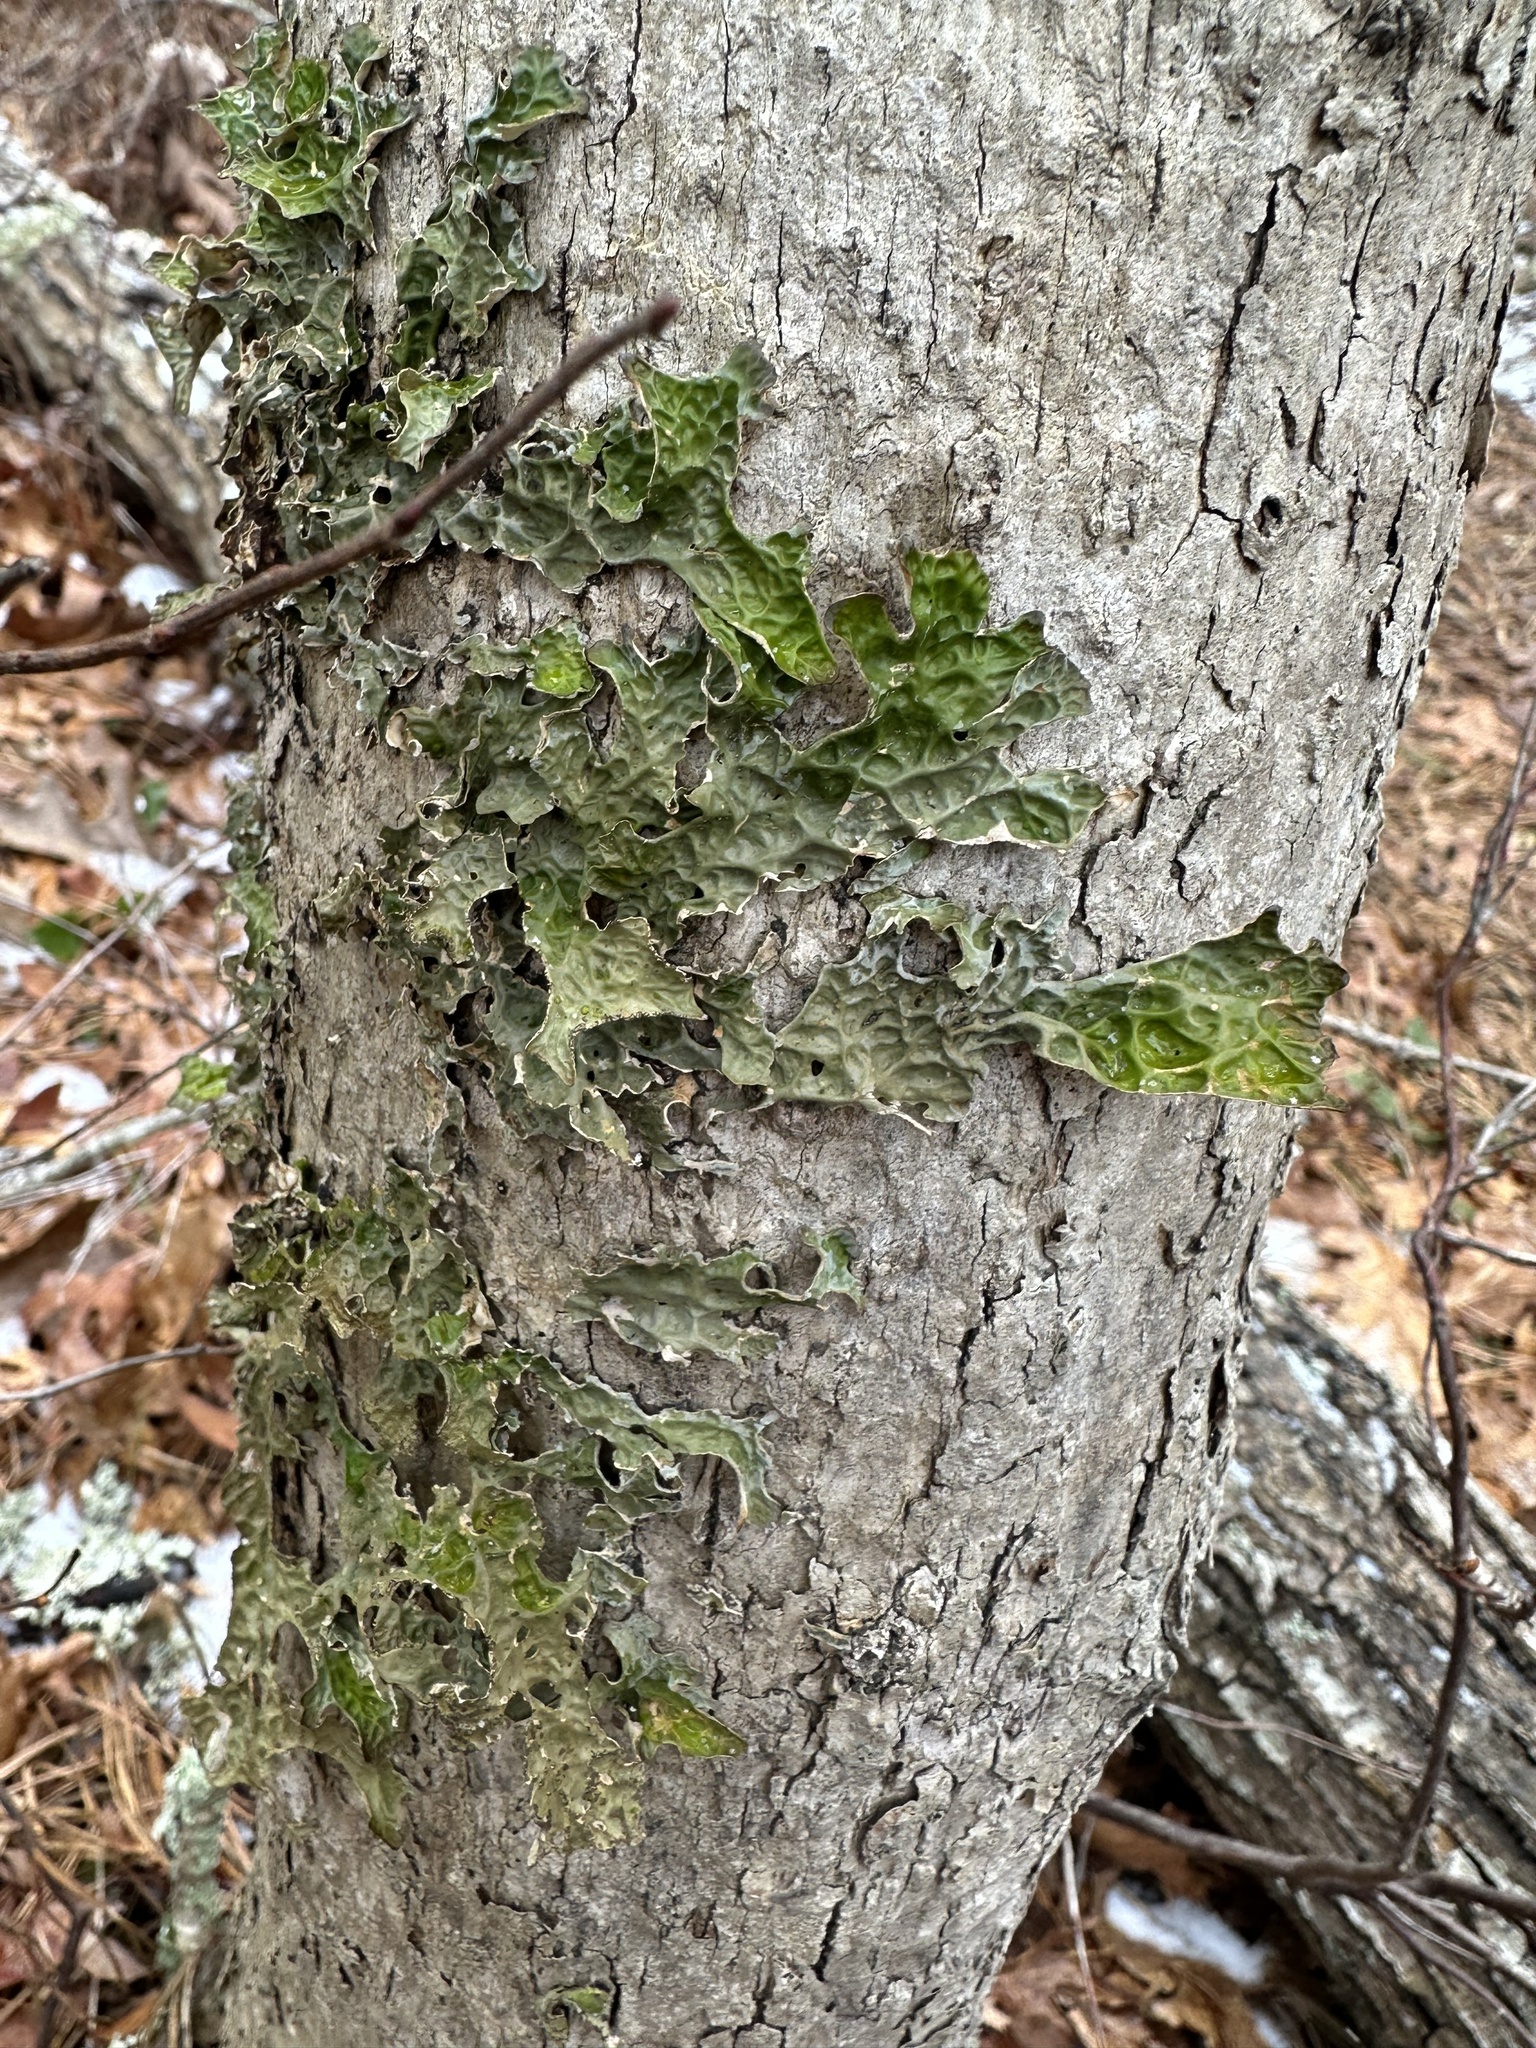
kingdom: Fungi
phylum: Ascomycota
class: Lecanoromycetes
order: Peltigerales
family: Lobariaceae
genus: Lobaria
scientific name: Lobaria pulmonaria
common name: Lungwort
